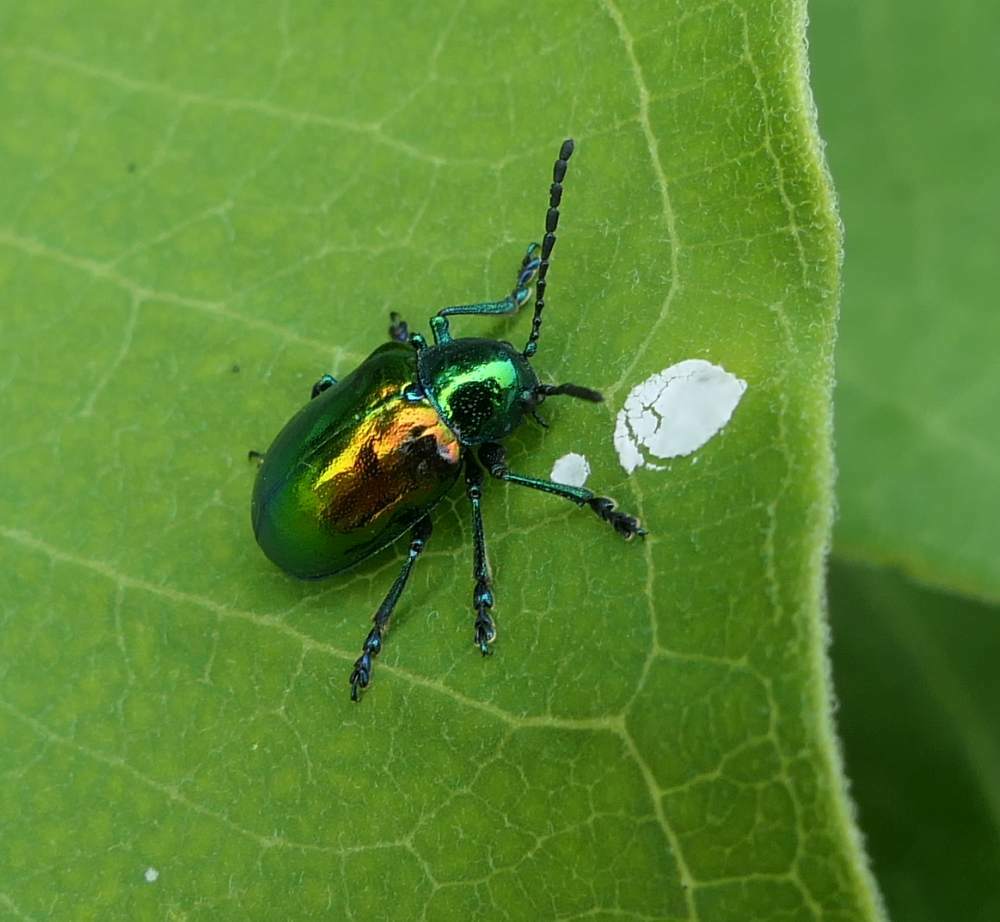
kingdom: Animalia
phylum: Arthropoda
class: Insecta
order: Coleoptera
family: Chrysomelidae
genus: Chrysochus
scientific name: Chrysochus auratus
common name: Dogbane leaf beetle
